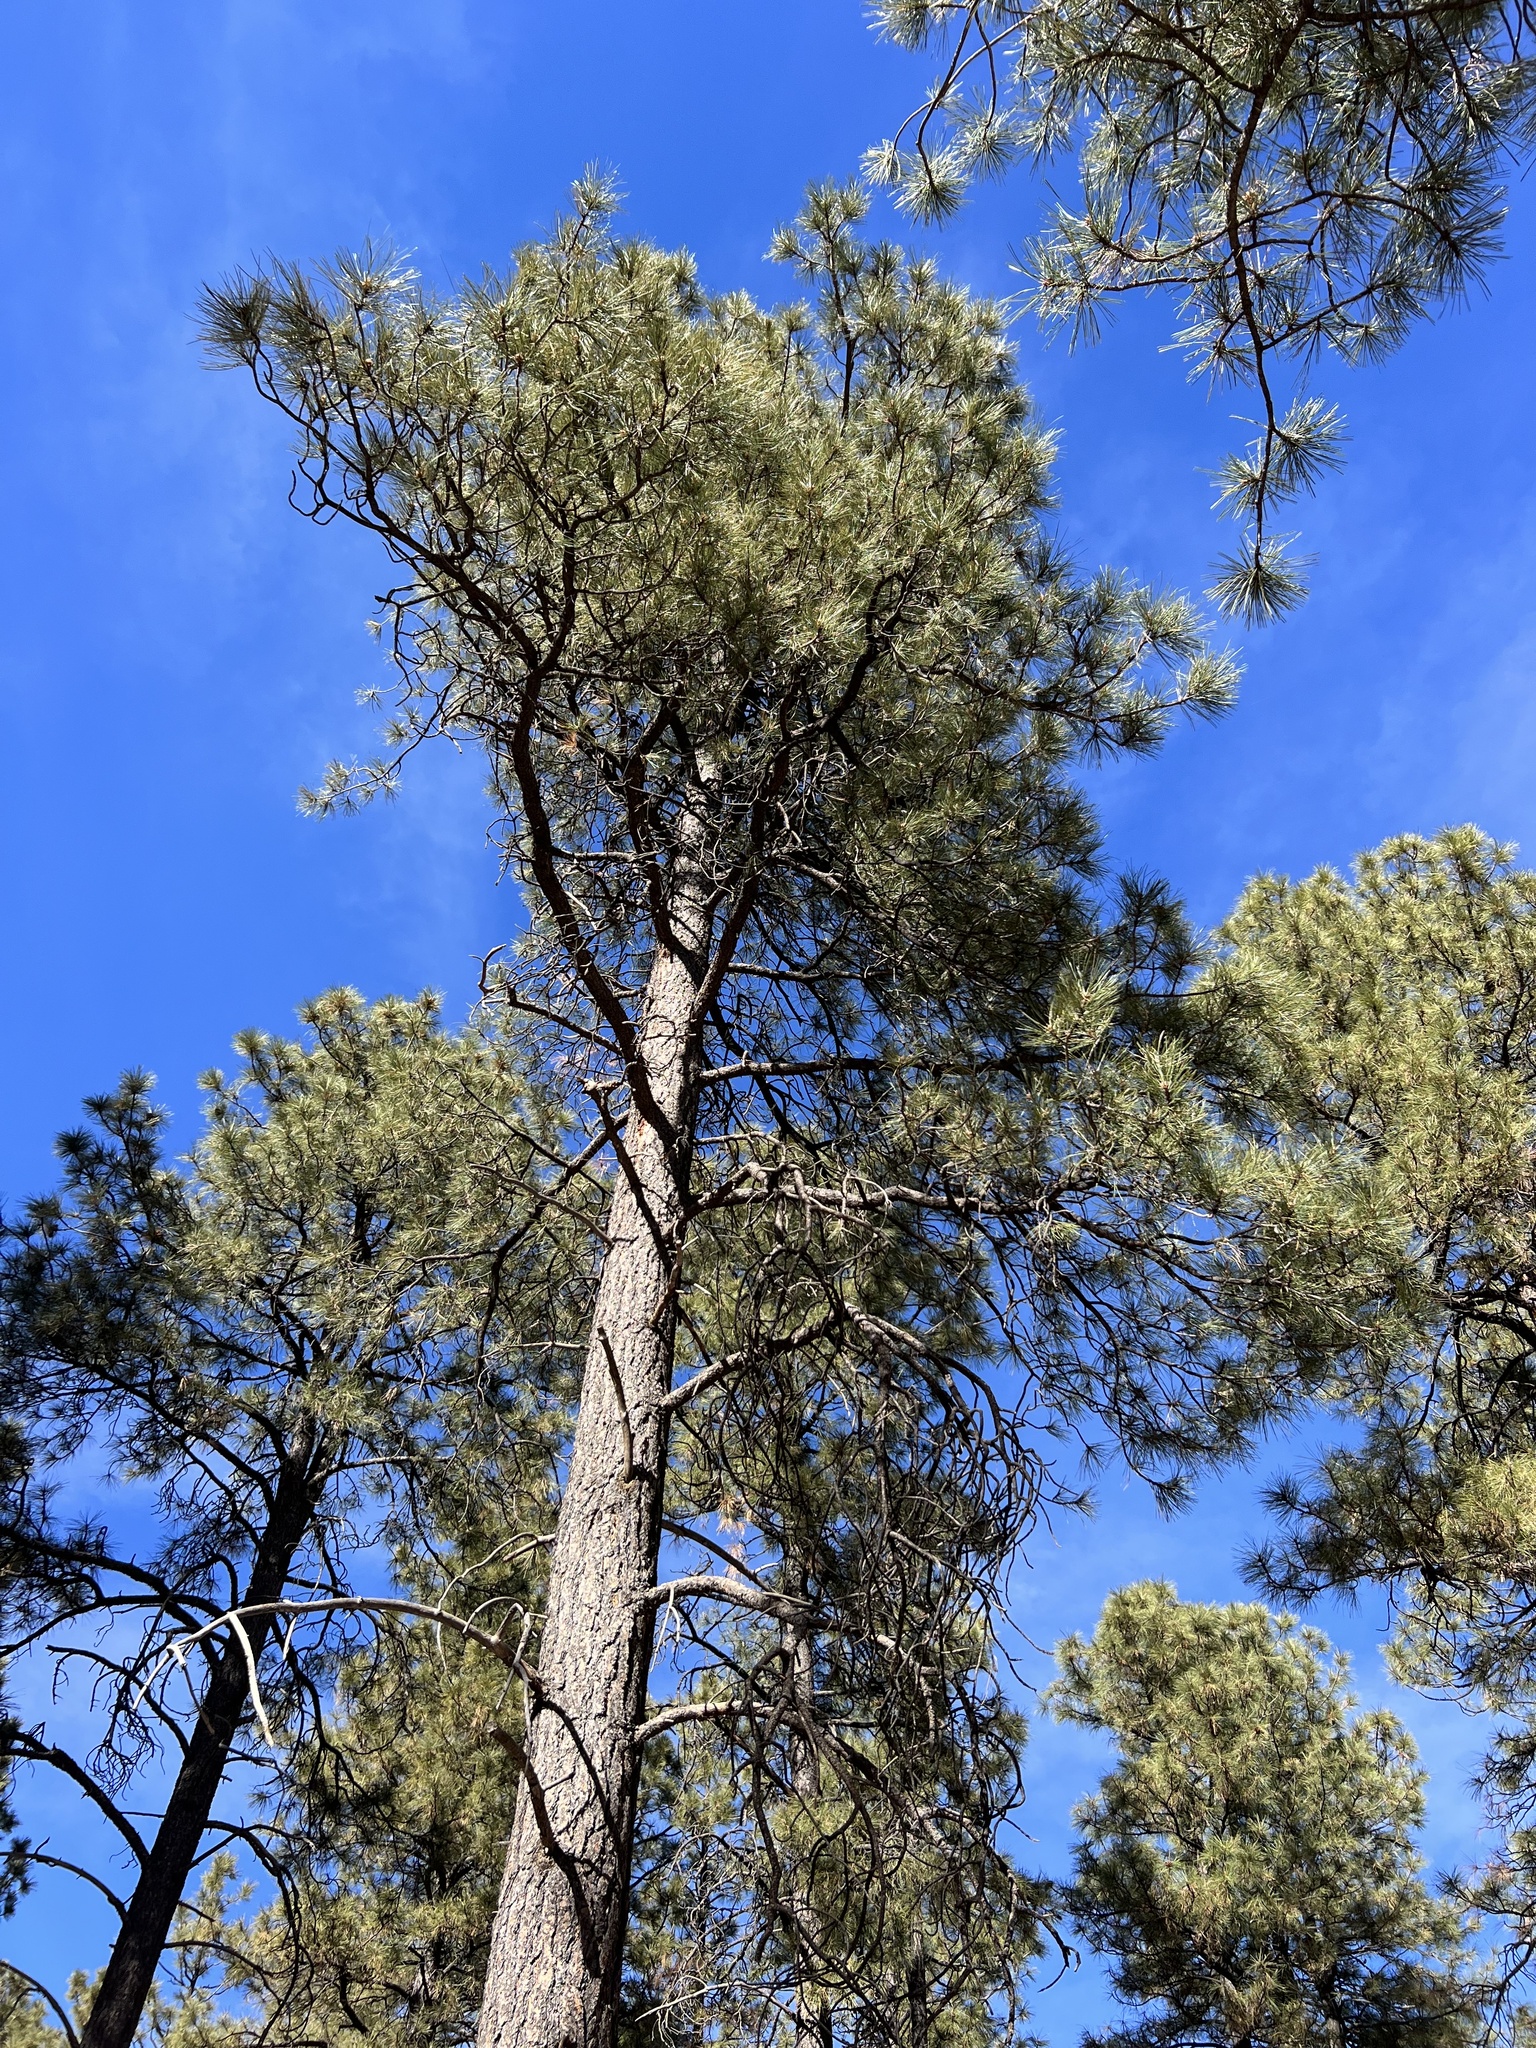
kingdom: Plantae
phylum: Tracheophyta
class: Pinopsida
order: Pinales
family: Pinaceae
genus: Pinus
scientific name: Pinus ponderosa
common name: Western yellow-pine
